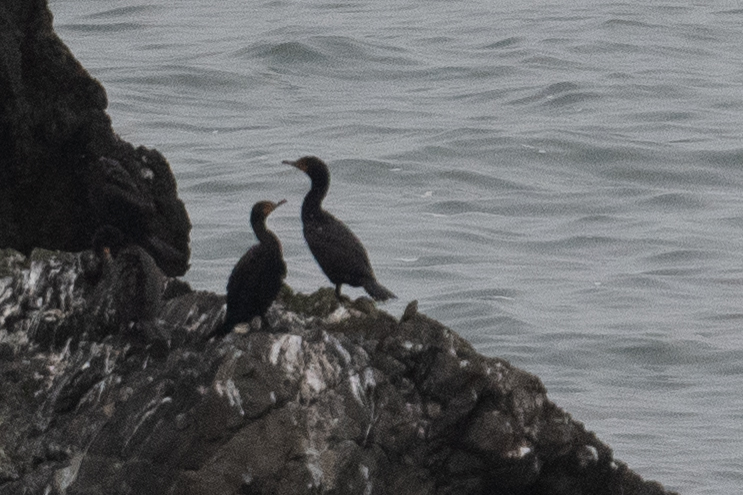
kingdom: Animalia
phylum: Chordata
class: Aves
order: Suliformes
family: Phalacrocoracidae
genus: Phalacrocorax
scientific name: Phalacrocorax auritus
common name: Double-crested cormorant
